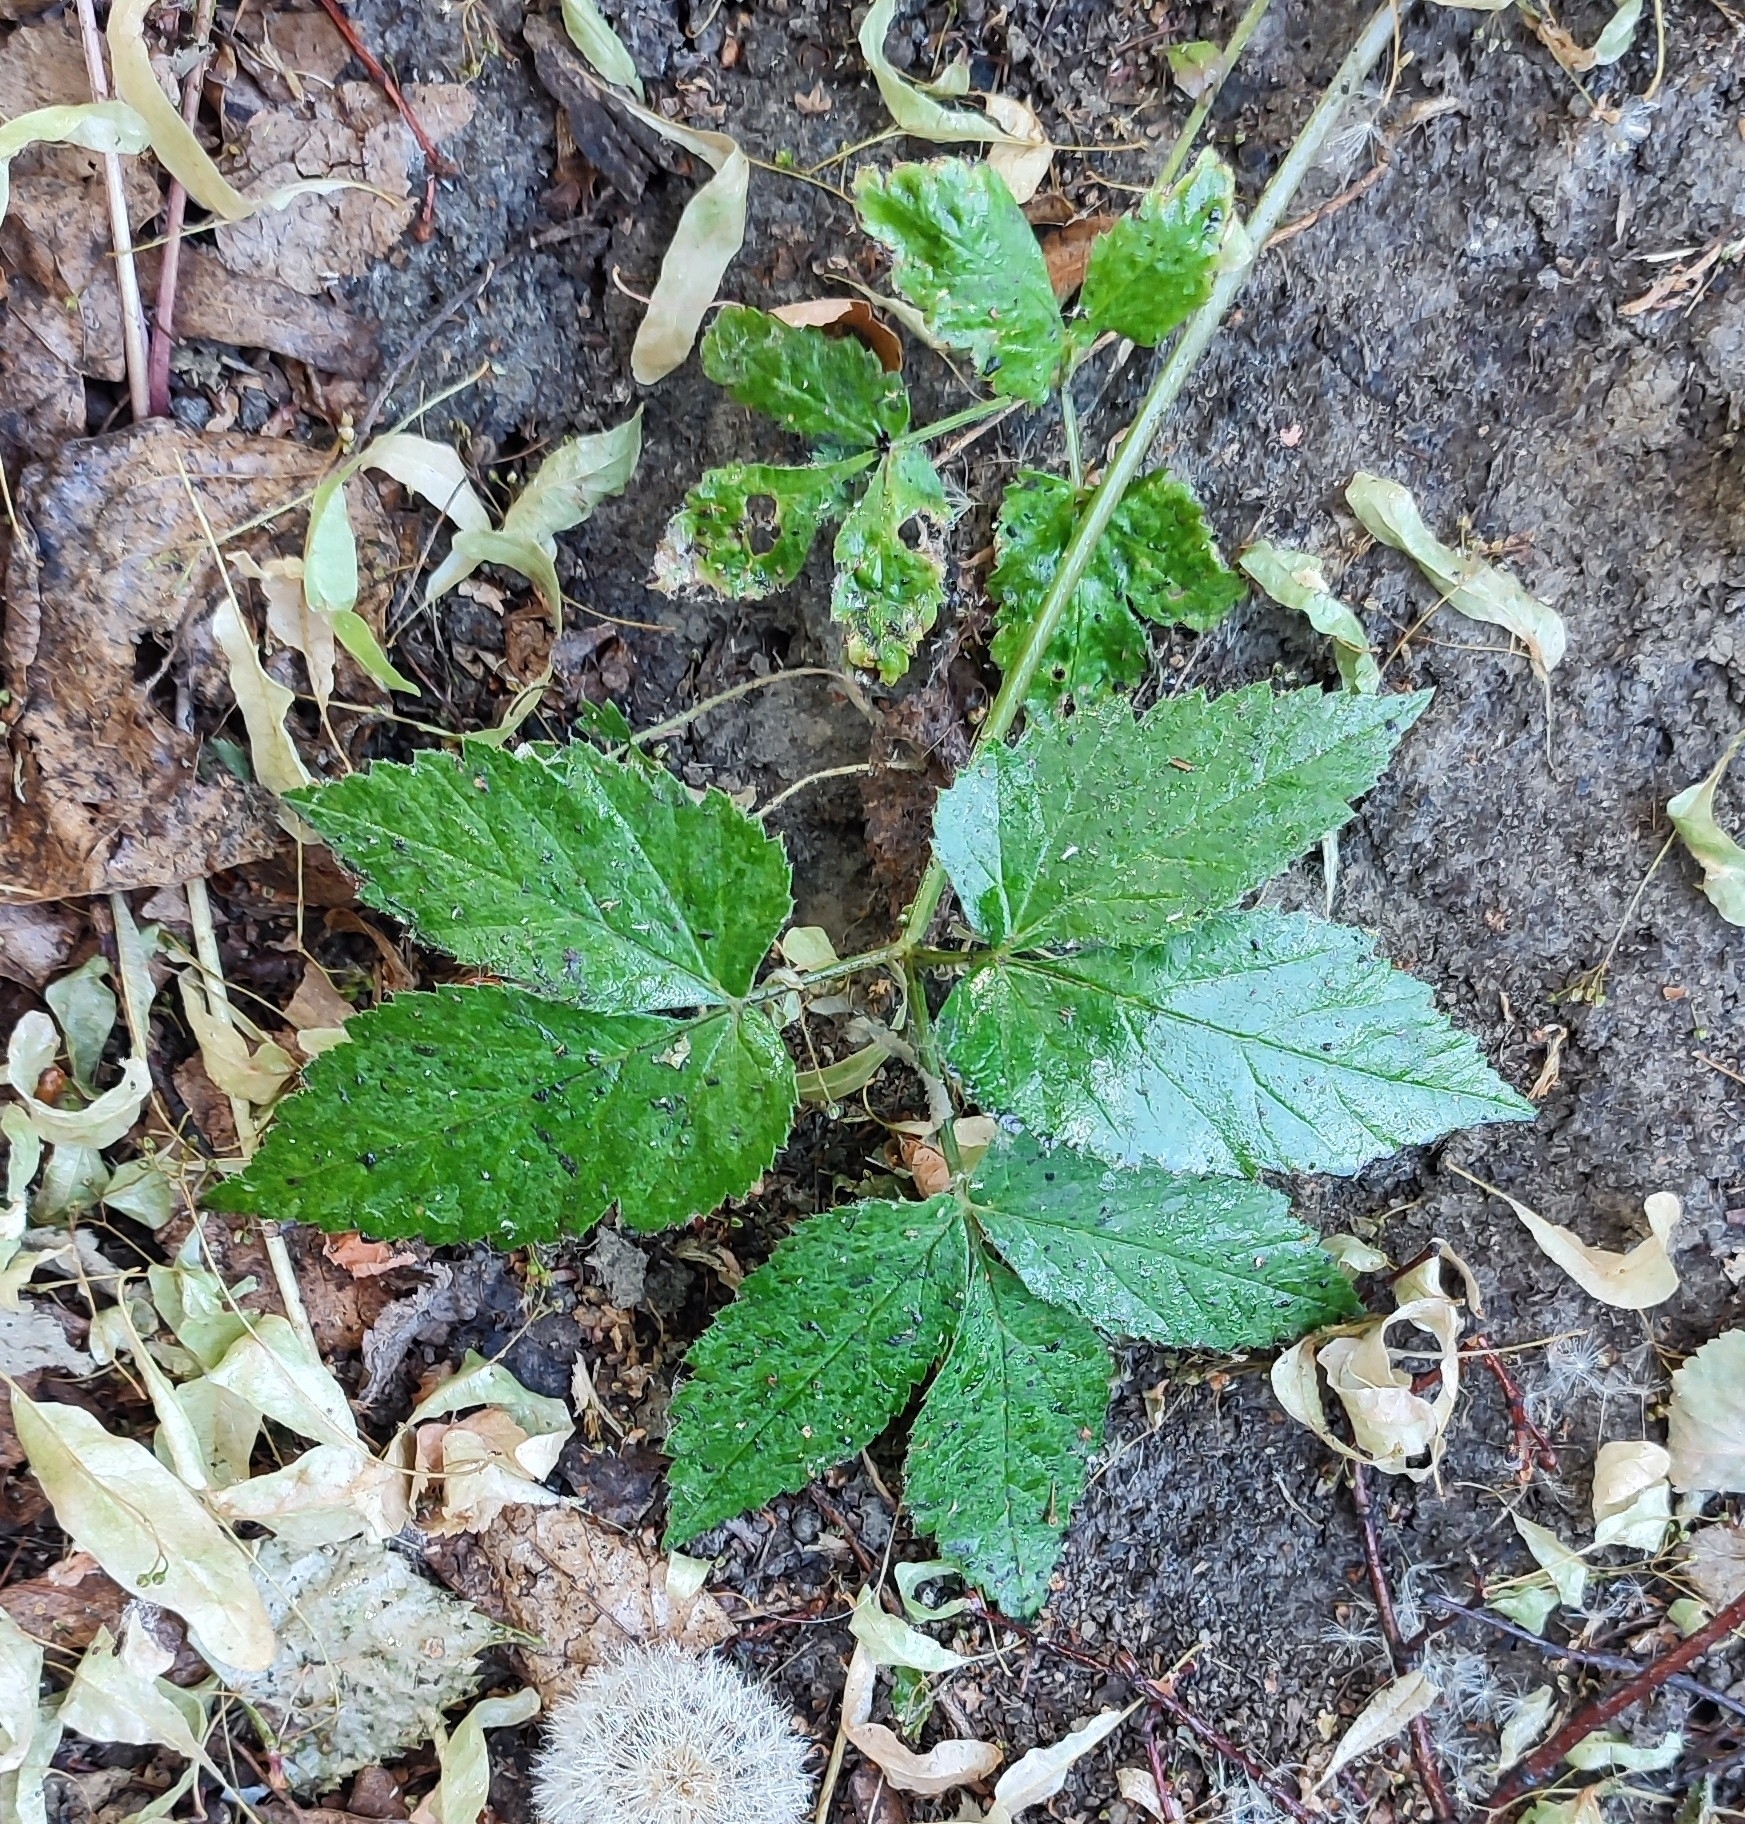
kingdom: Plantae
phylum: Tracheophyta
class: Magnoliopsida
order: Apiales
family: Apiaceae
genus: Aegopodium
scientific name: Aegopodium podagraria
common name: Ground-elder
